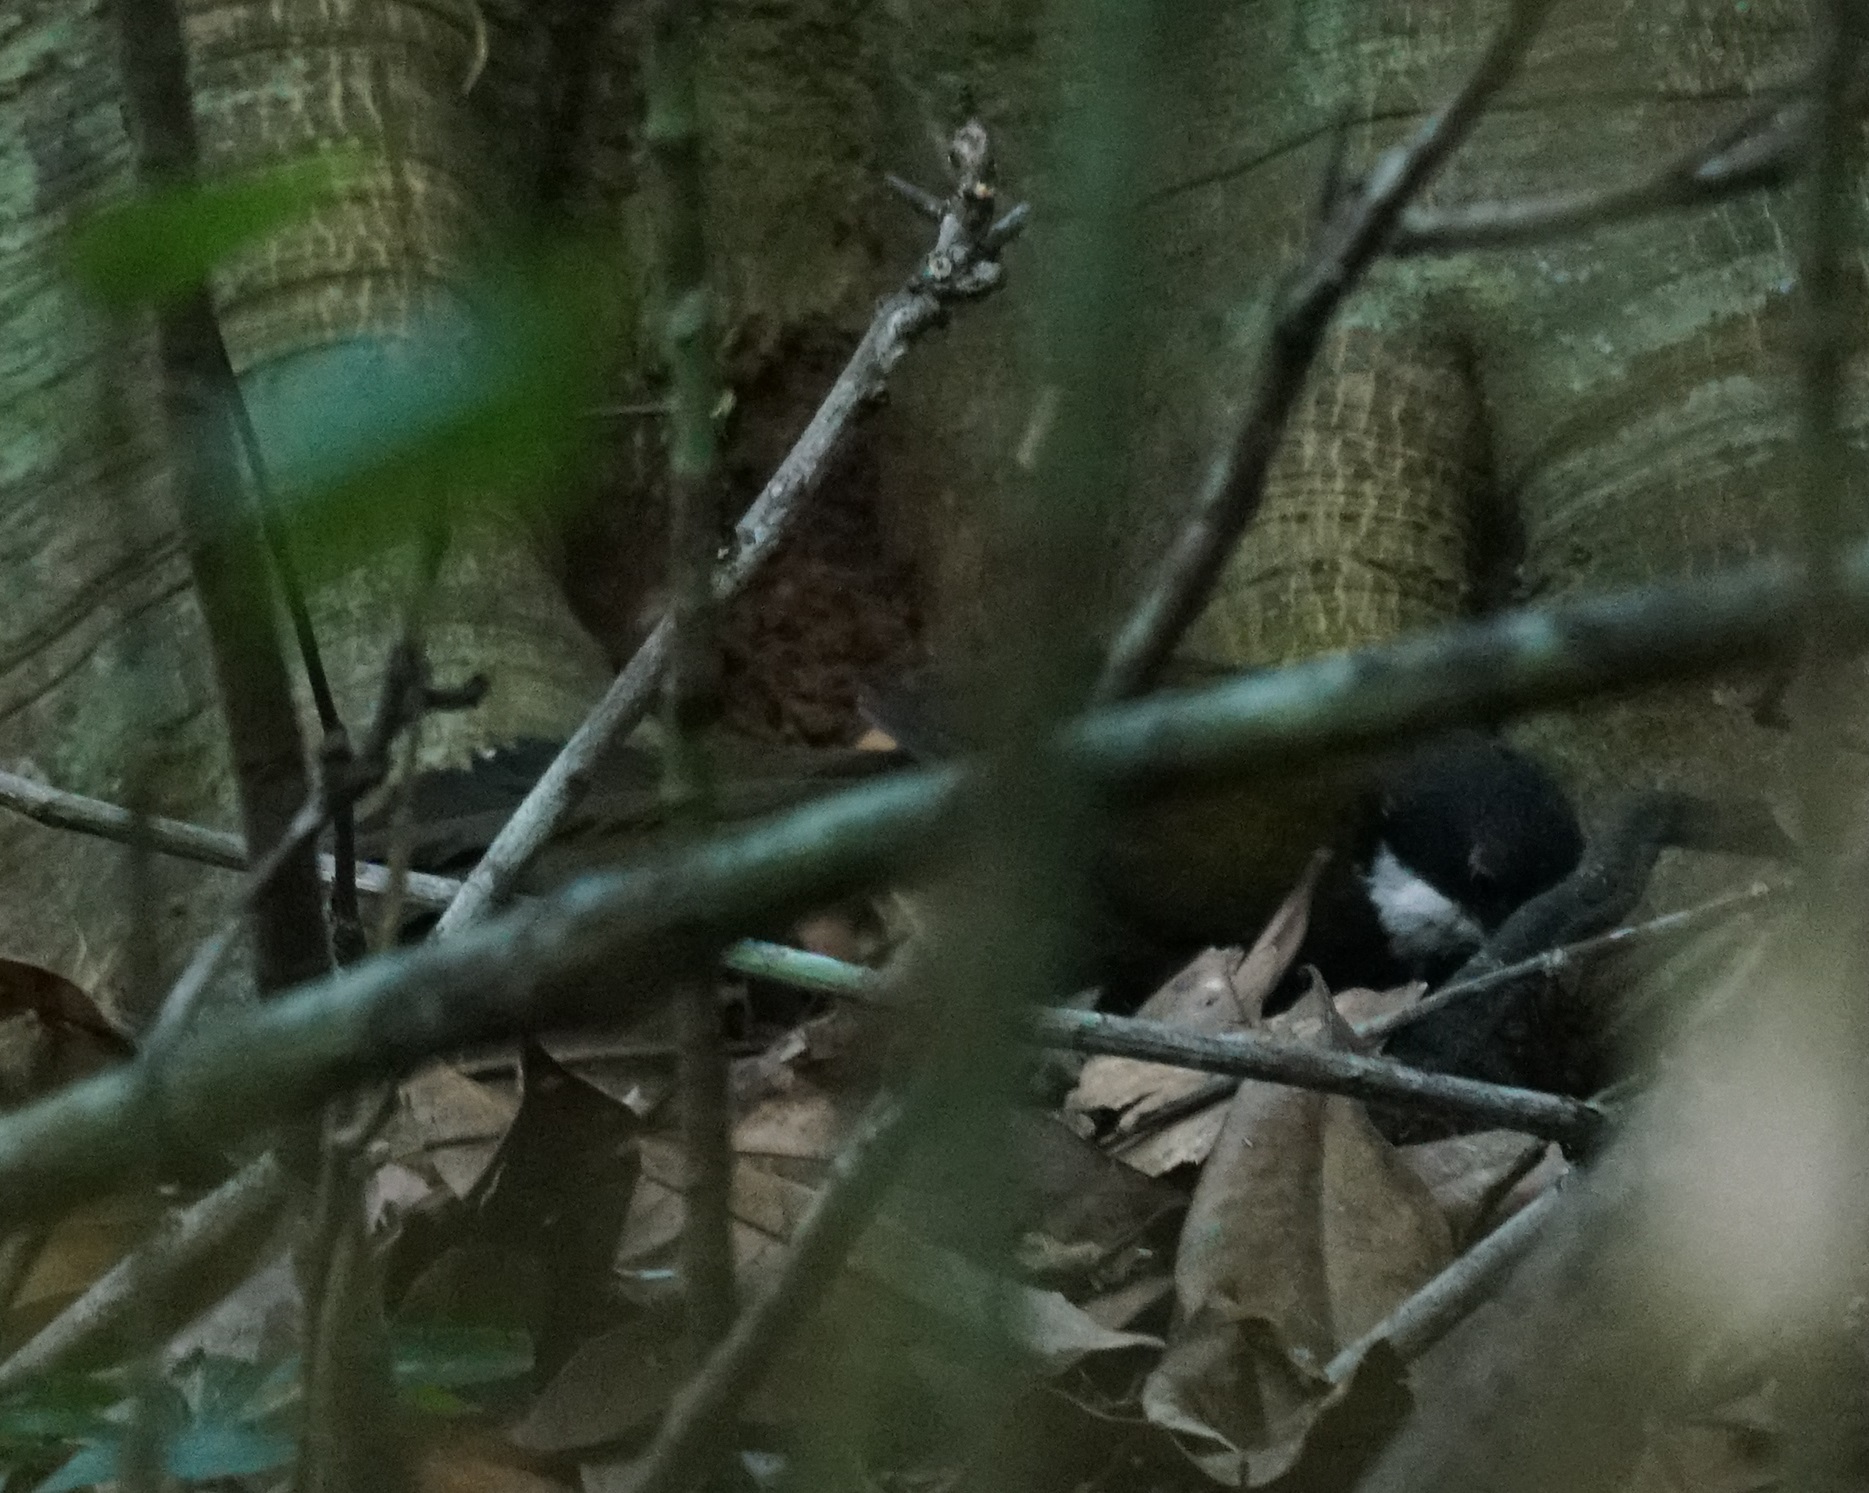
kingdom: Animalia
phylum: Chordata
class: Aves
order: Passeriformes
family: Psophodidae
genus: Psophodes
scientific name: Psophodes olivaceus
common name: Eastern whipbird
